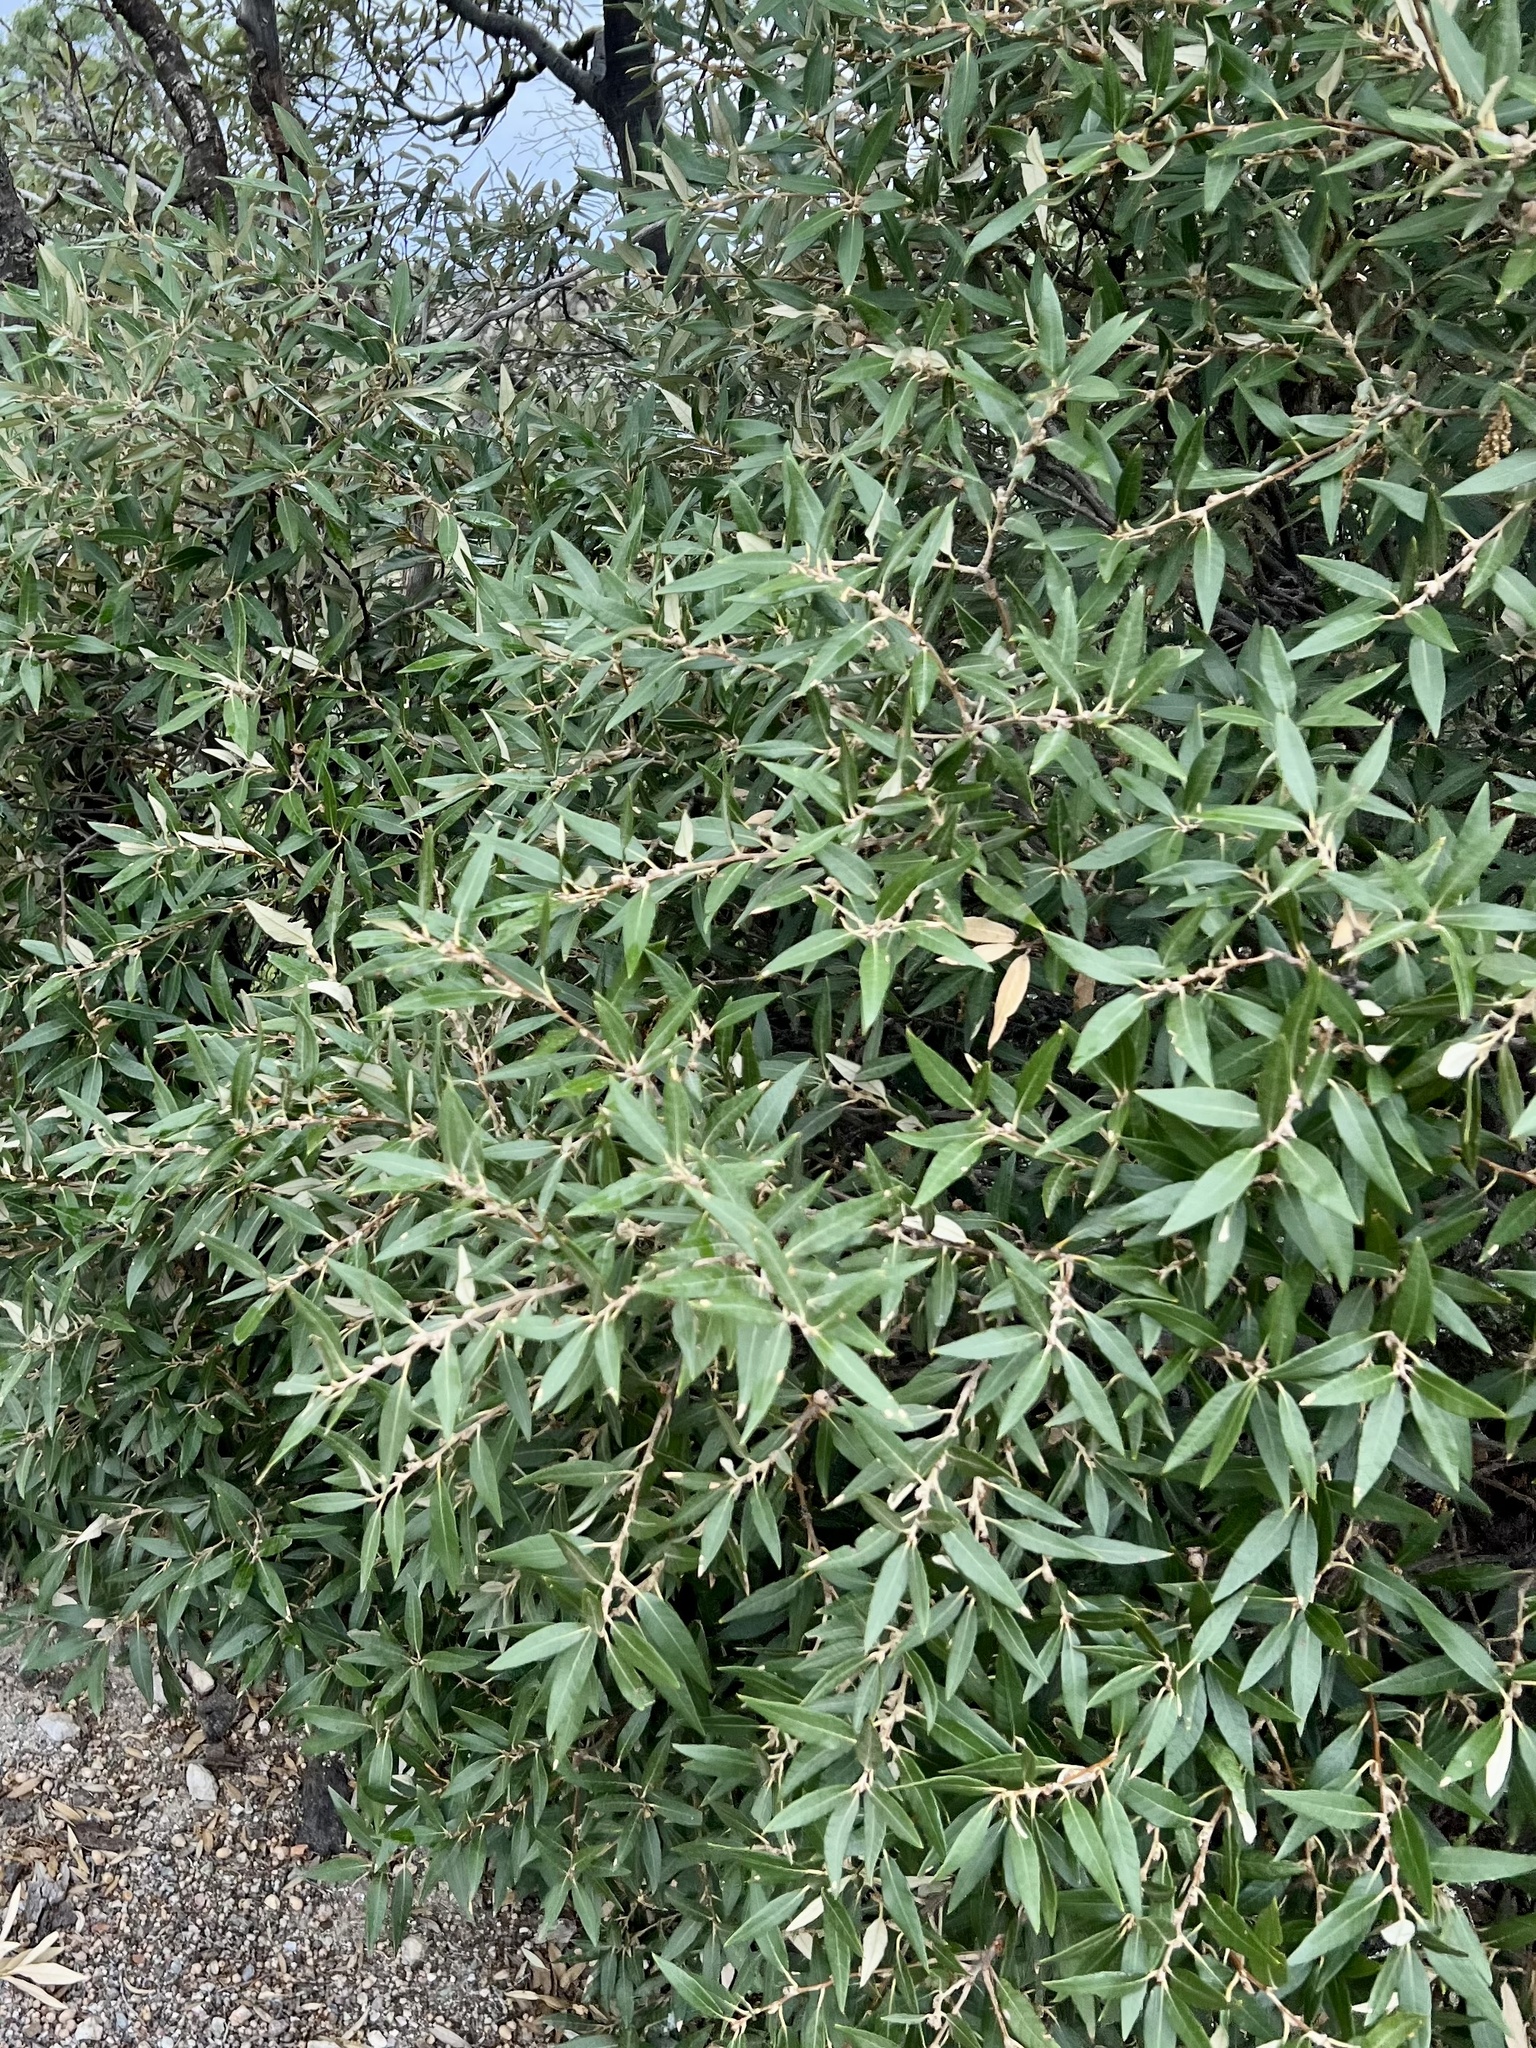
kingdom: Plantae
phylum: Tracheophyta
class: Magnoliopsida
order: Fagales
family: Fagaceae
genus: Quercus
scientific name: Quercus hypoleucoides
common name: Silverleaf oak
